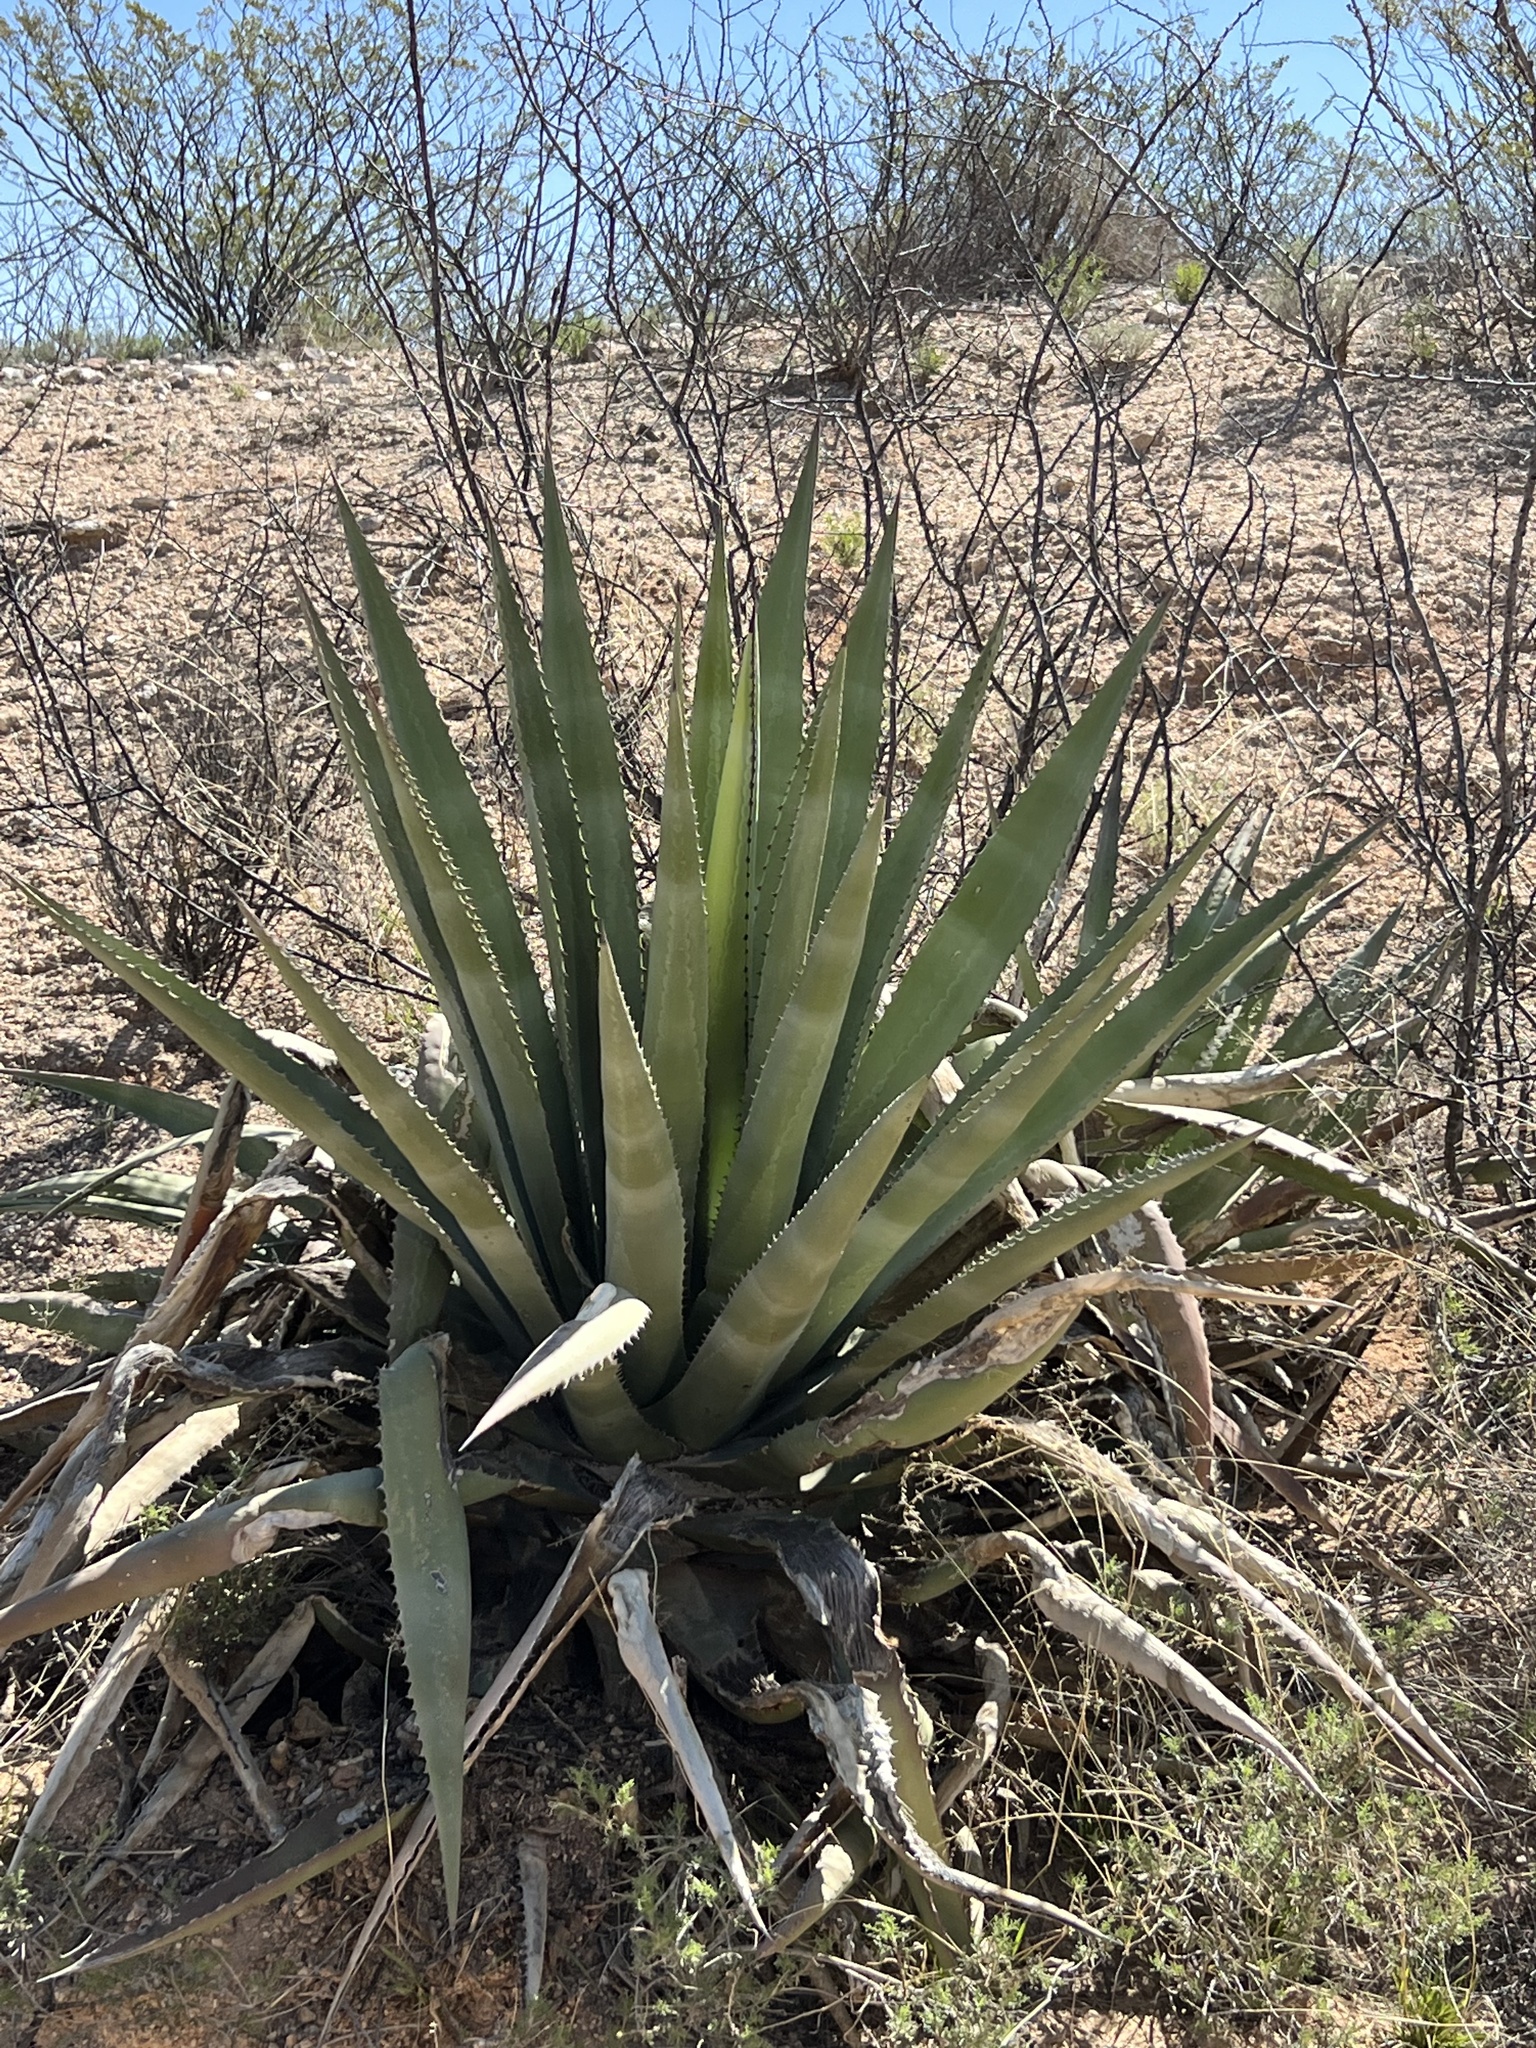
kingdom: Plantae
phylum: Tracheophyta
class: Liliopsida
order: Asparagales
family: Asparagaceae
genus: Agave
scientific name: Agave palmeri
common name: Palmer agave
